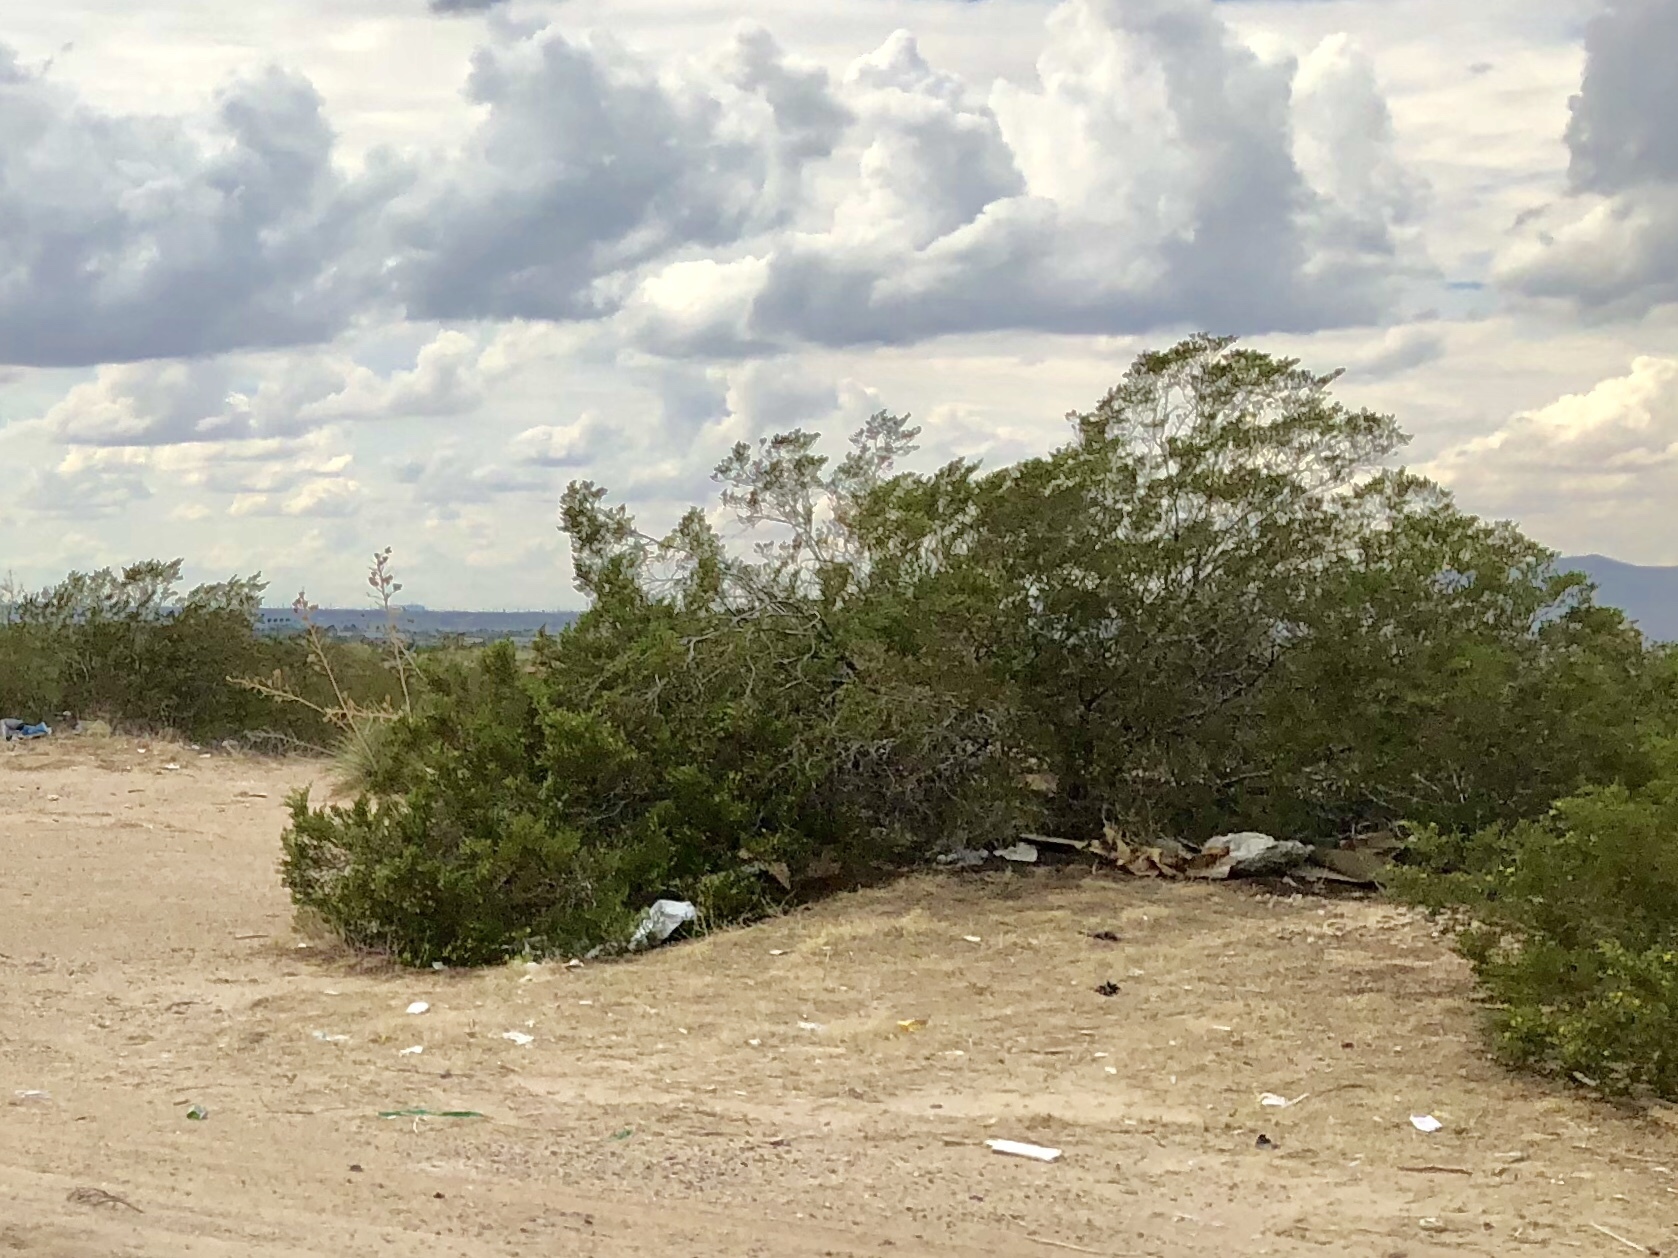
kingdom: Plantae
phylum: Tracheophyta
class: Magnoliopsida
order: Zygophyllales
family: Zygophyllaceae
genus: Larrea
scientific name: Larrea tridentata
